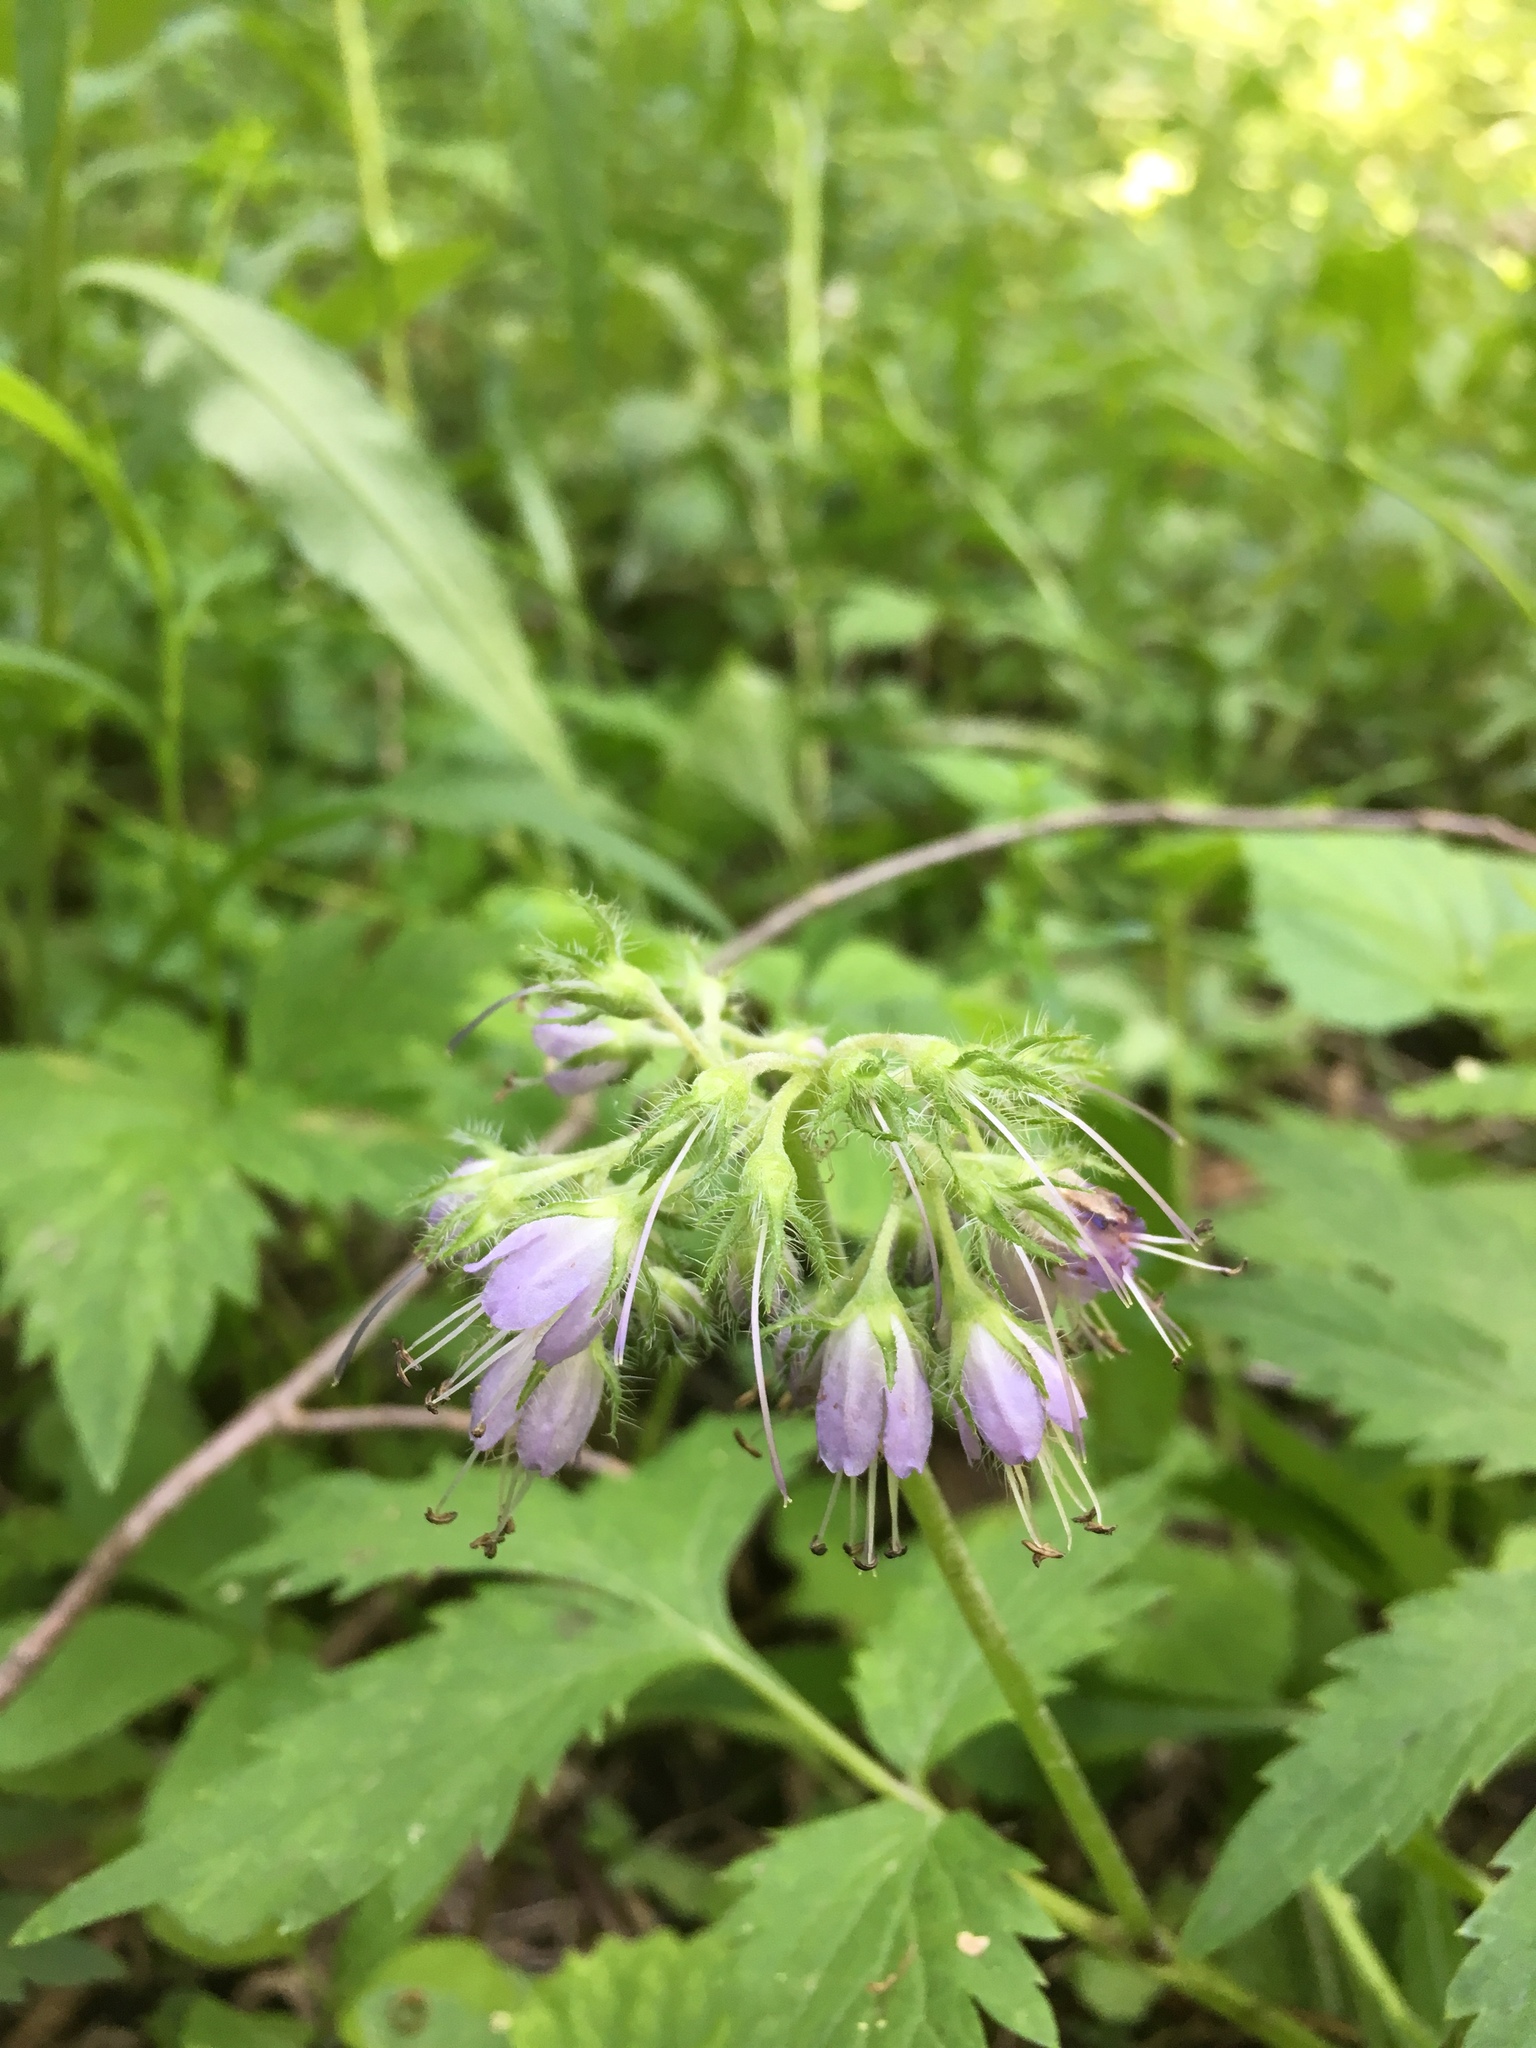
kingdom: Plantae
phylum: Tracheophyta
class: Magnoliopsida
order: Boraginales
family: Hydrophyllaceae
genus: Hydrophyllum
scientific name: Hydrophyllum virginianum
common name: Virginia waterleaf
